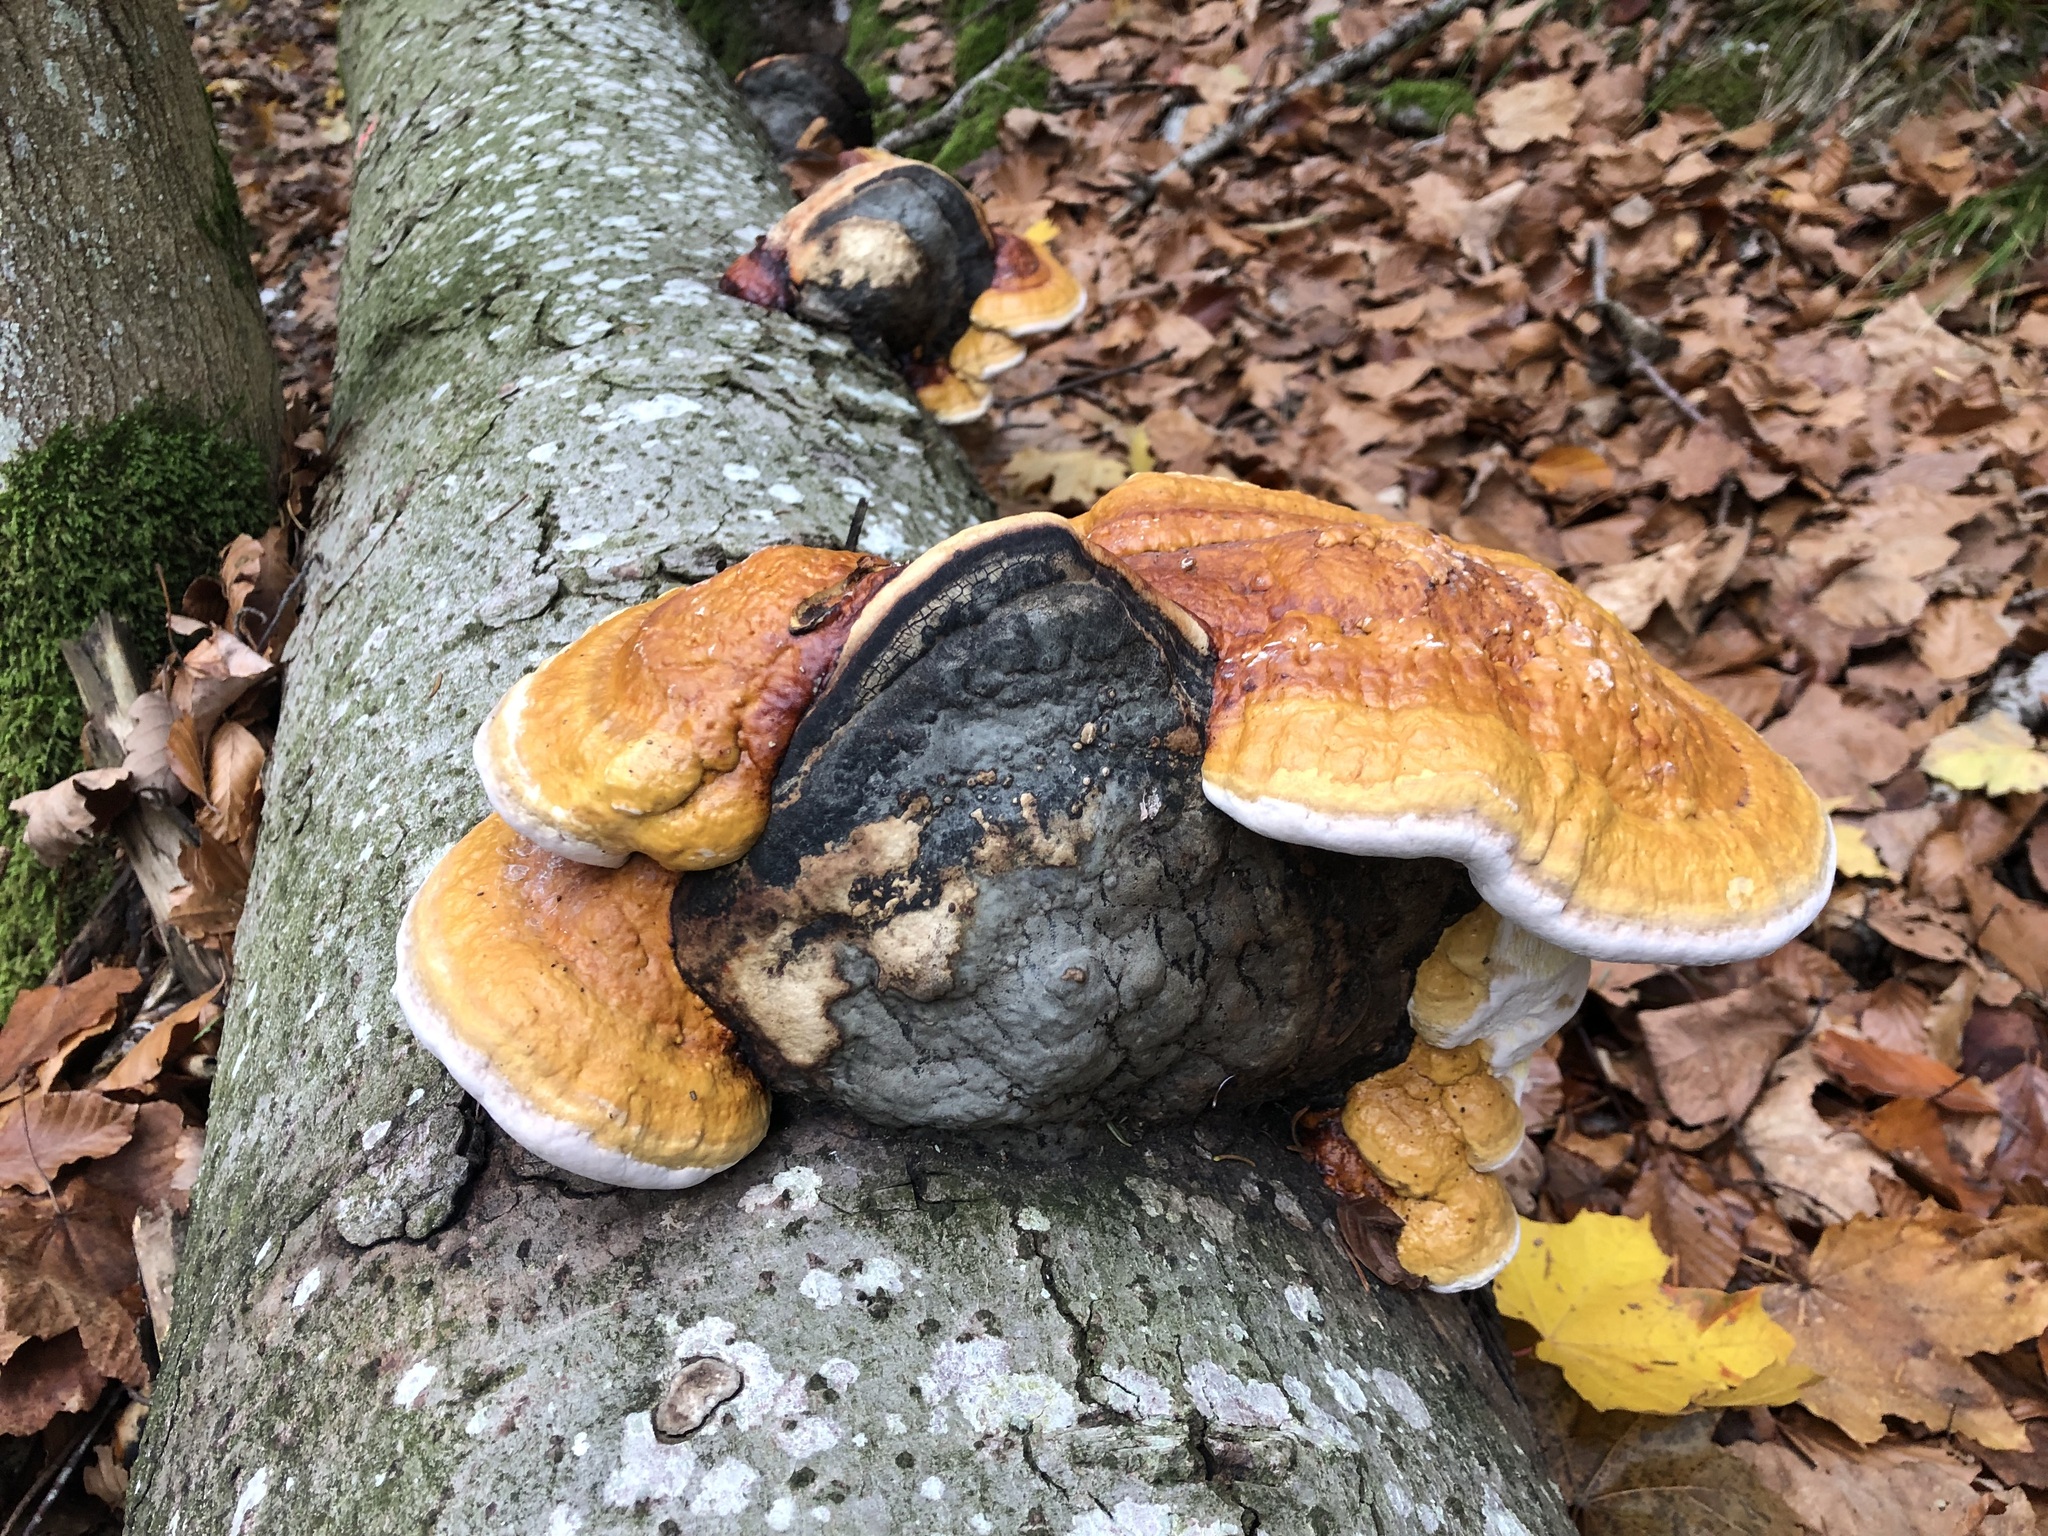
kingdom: Fungi
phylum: Basidiomycota
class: Agaricomycetes
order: Polyporales
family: Fomitopsidaceae
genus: Fomitopsis
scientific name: Fomitopsis pinicola
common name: Red-belted bracket
